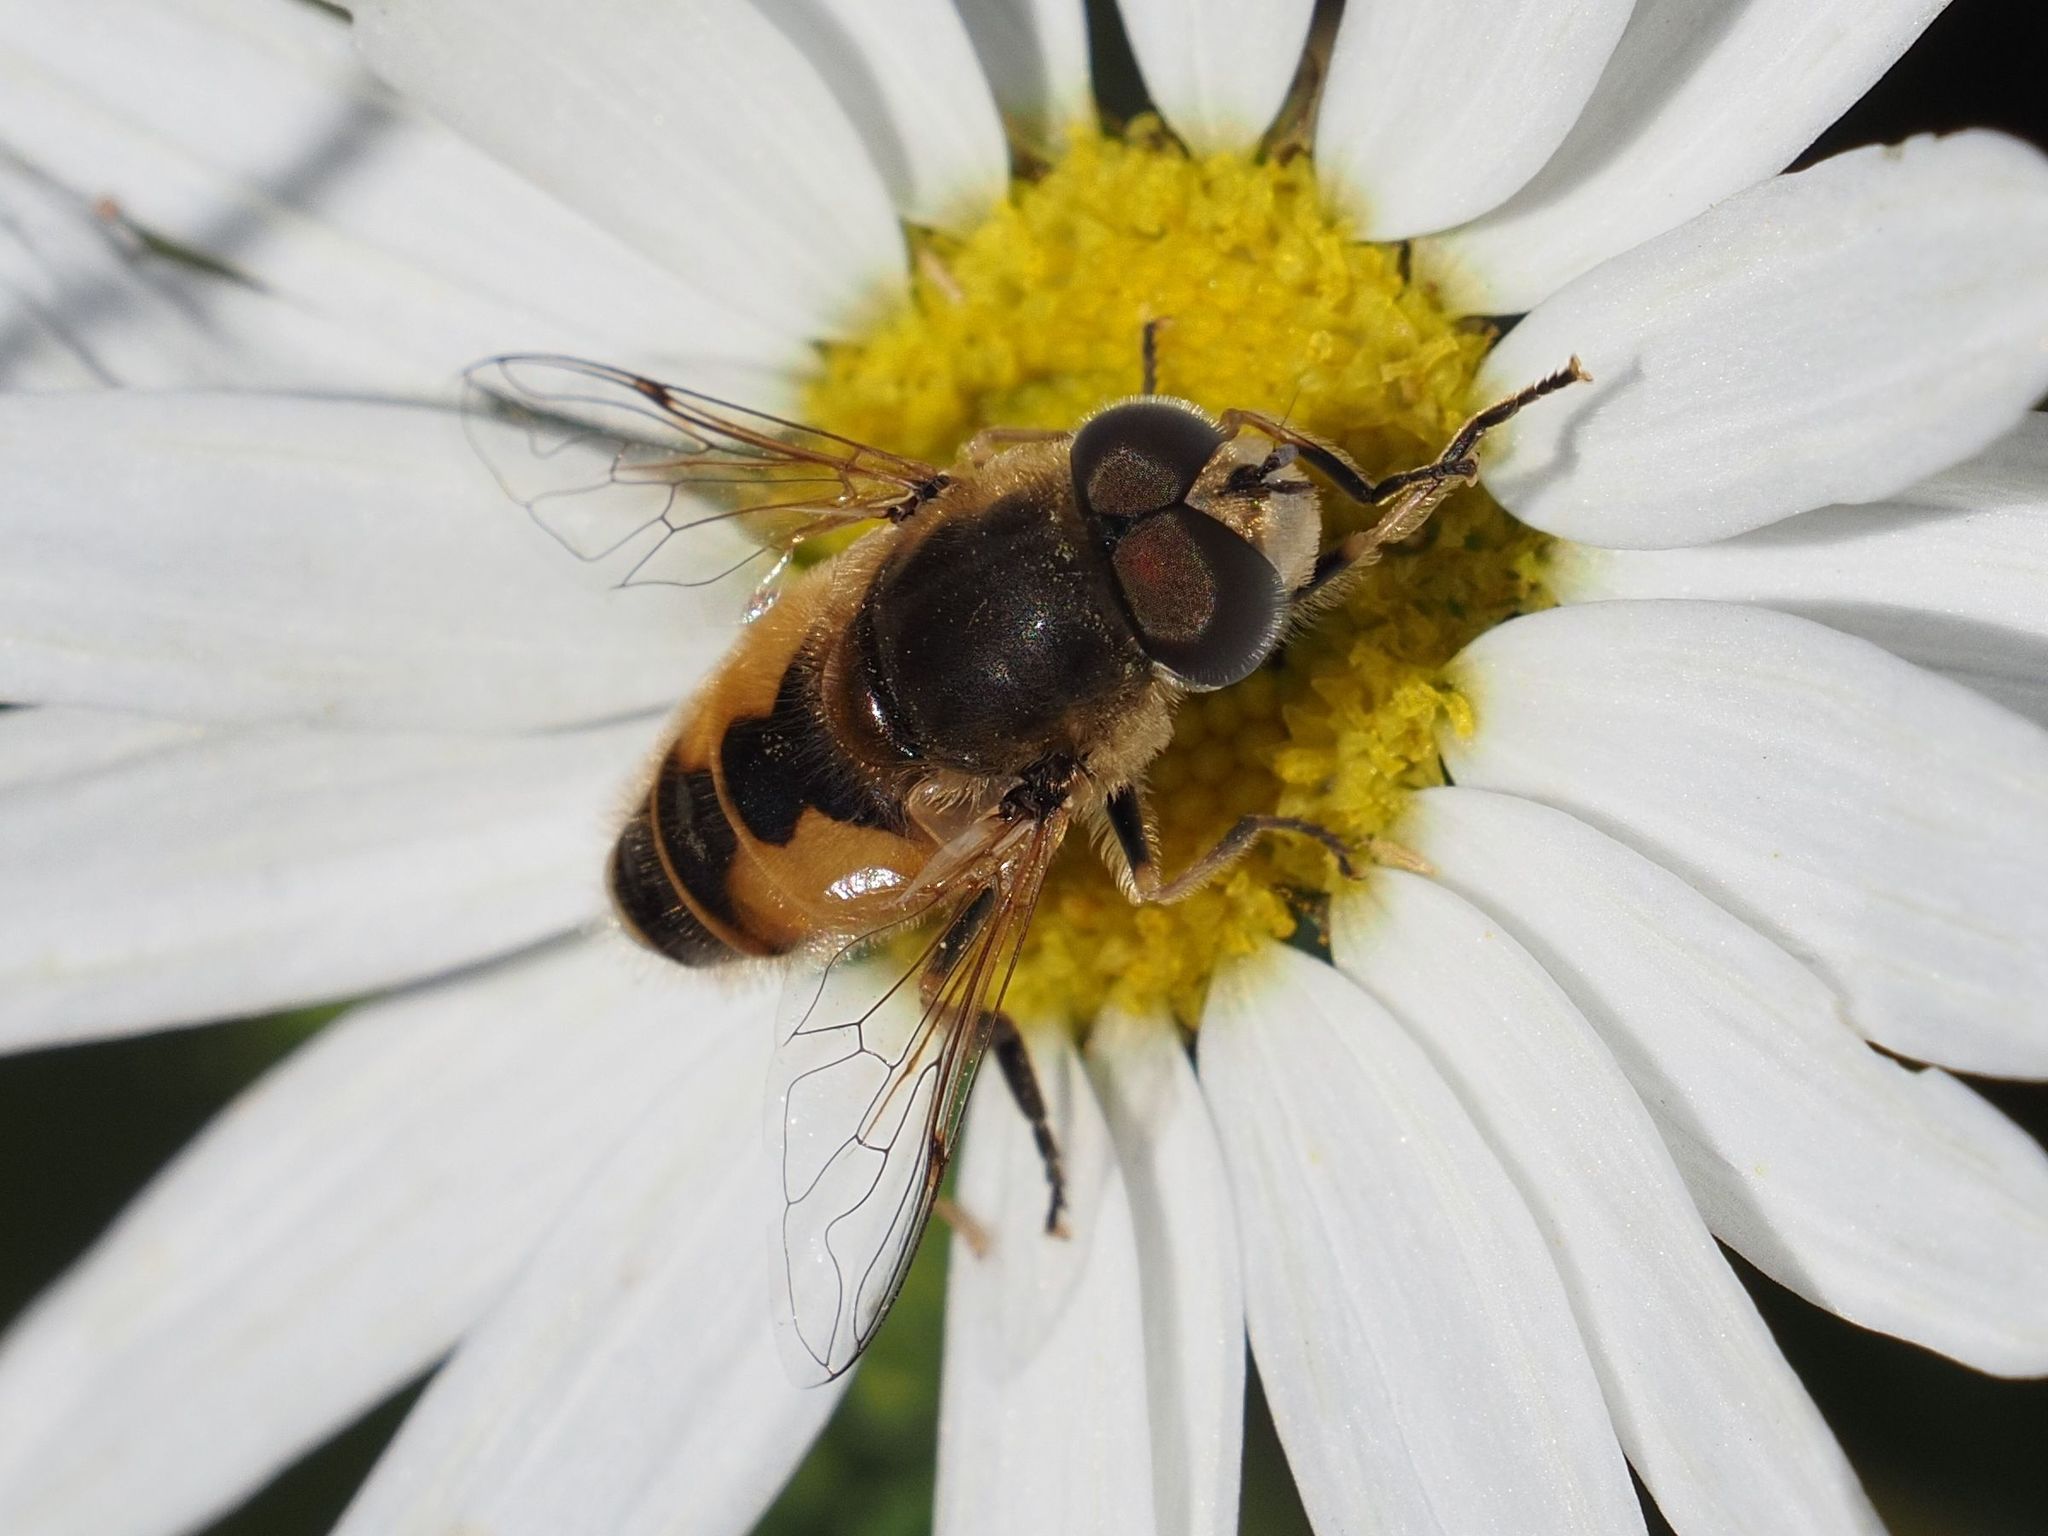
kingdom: Animalia
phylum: Arthropoda
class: Insecta
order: Diptera
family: Syrphidae
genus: Eristalis
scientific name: Eristalis arbustorum
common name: Hover fly
